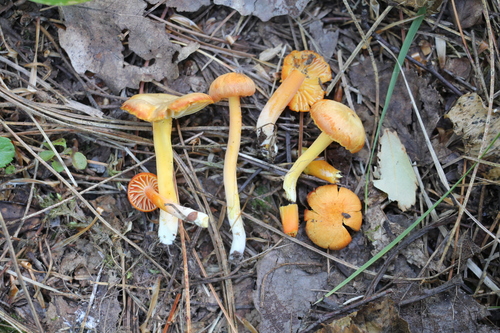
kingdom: Fungi
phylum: Basidiomycota
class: Agaricomycetes
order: Agaricales
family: Hygrophoraceae
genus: Hygrocybe
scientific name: Hygrocybe reidii
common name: Honey waxcap
